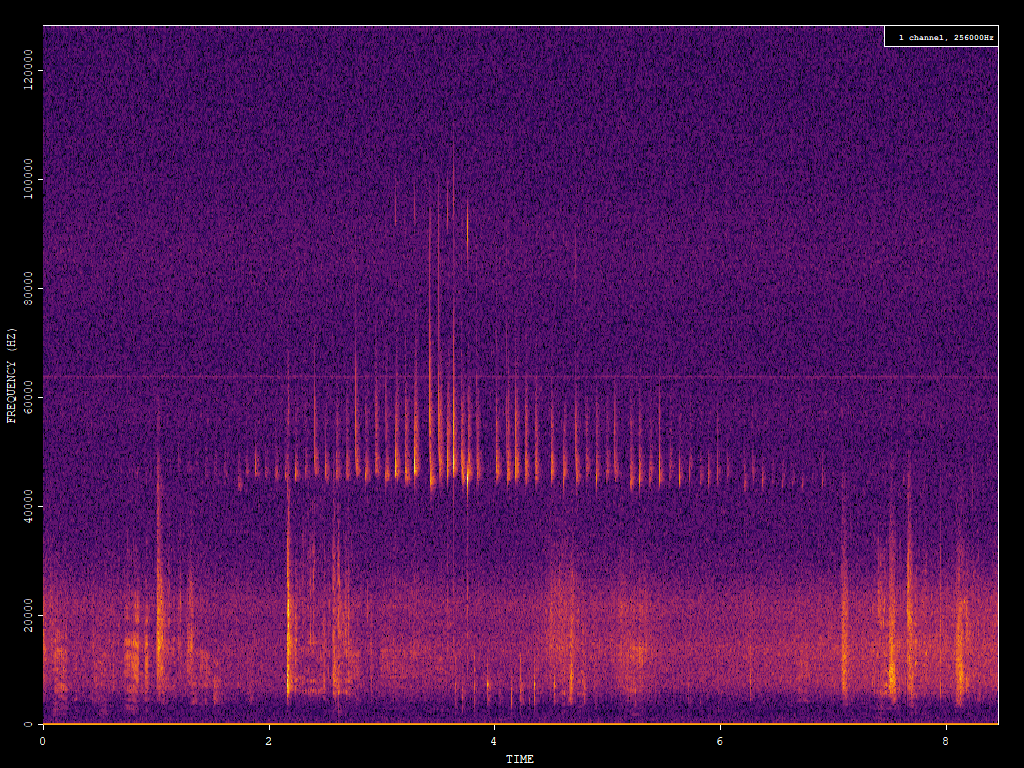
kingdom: Animalia
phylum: Chordata
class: Mammalia
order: Chiroptera
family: Vespertilionidae
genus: Pipistrellus
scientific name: Pipistrellus pipistrellus
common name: Common pipistrelle
